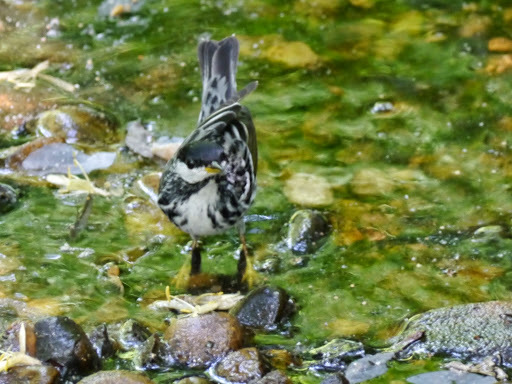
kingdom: Animalia
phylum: Chordata
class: Aves
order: Passeriformes
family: Parulidae
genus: Setophaga
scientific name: Setophaga striata
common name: Blackpoll warbler
